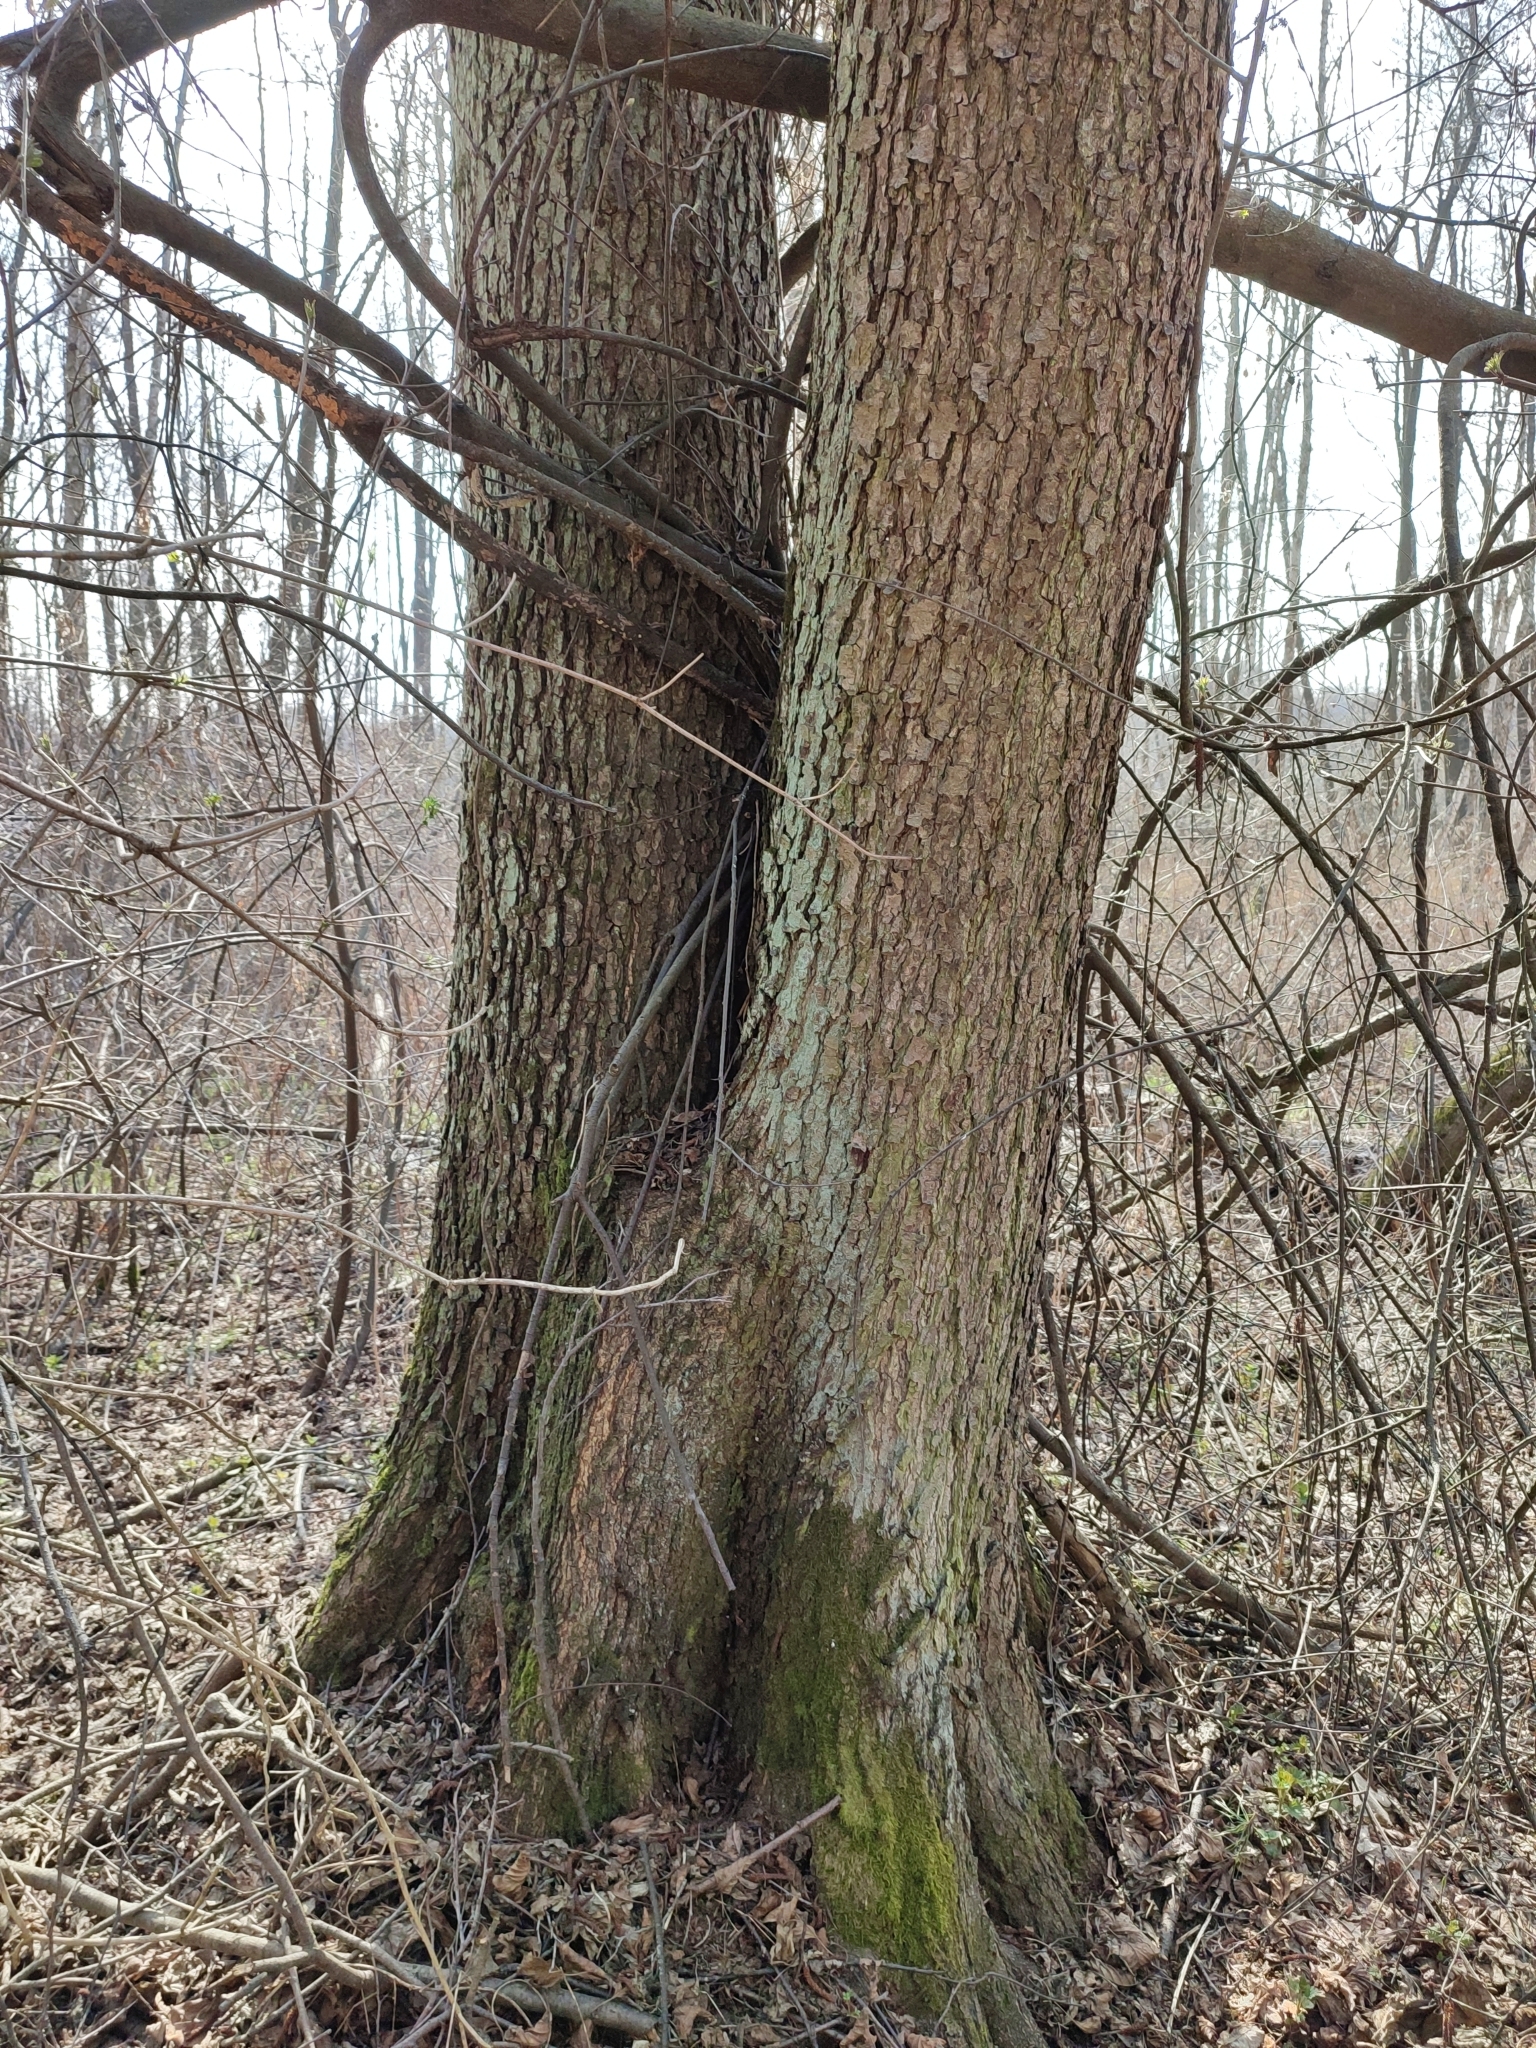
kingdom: Plantae
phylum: Tracheophyta
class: Magnoliopsida
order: Fagales
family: Betulaceae
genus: Alnus
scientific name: Alnus glutinosa
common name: Black alder
